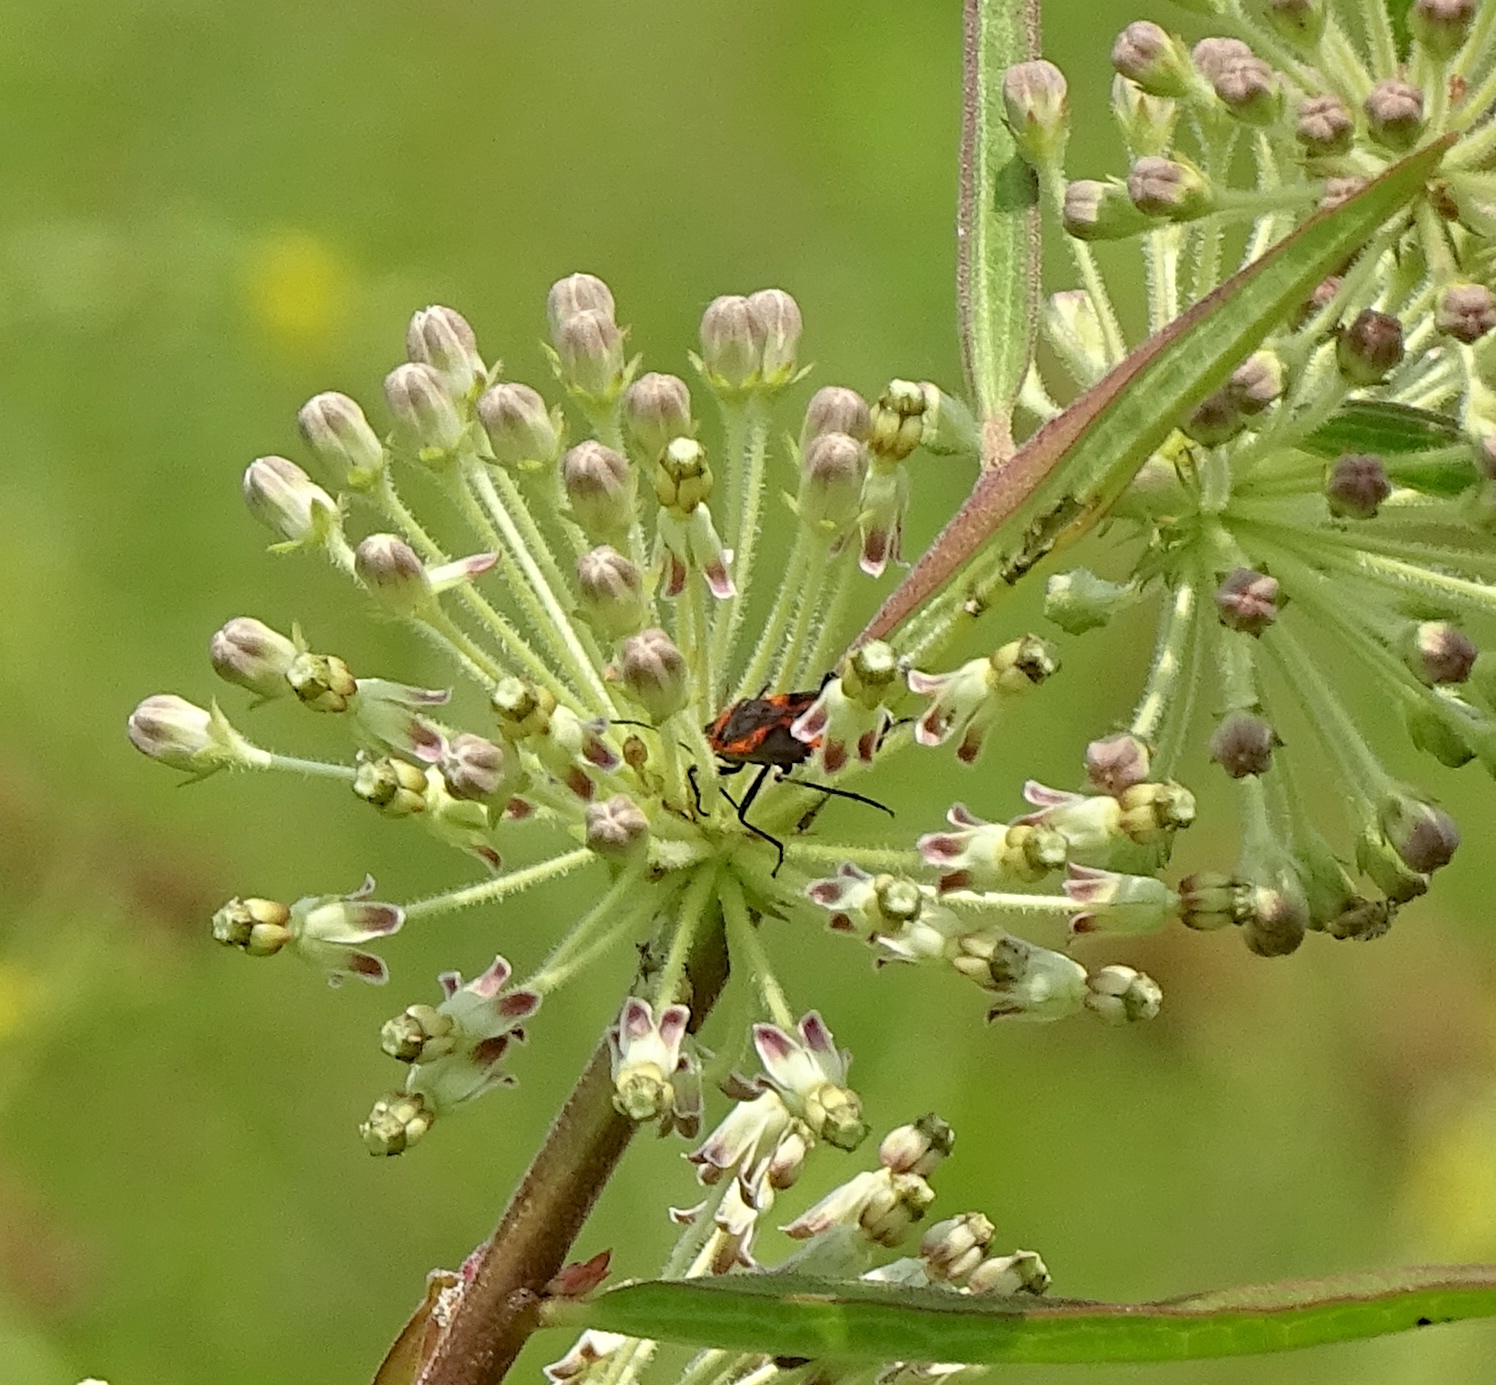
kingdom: Animalia
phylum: Arthropoda
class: Insecta
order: Hemiptera
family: Lygaeidae
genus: Lygaeus
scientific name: Lygaeus kalmii
